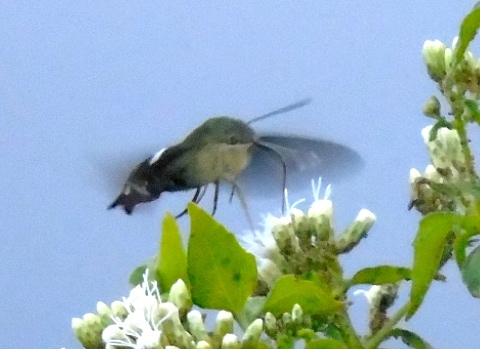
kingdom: Animalia
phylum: Arthropoda
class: Insecta
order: Lepidoptera
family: Sphingidae
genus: Aellopos
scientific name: Aellopos
